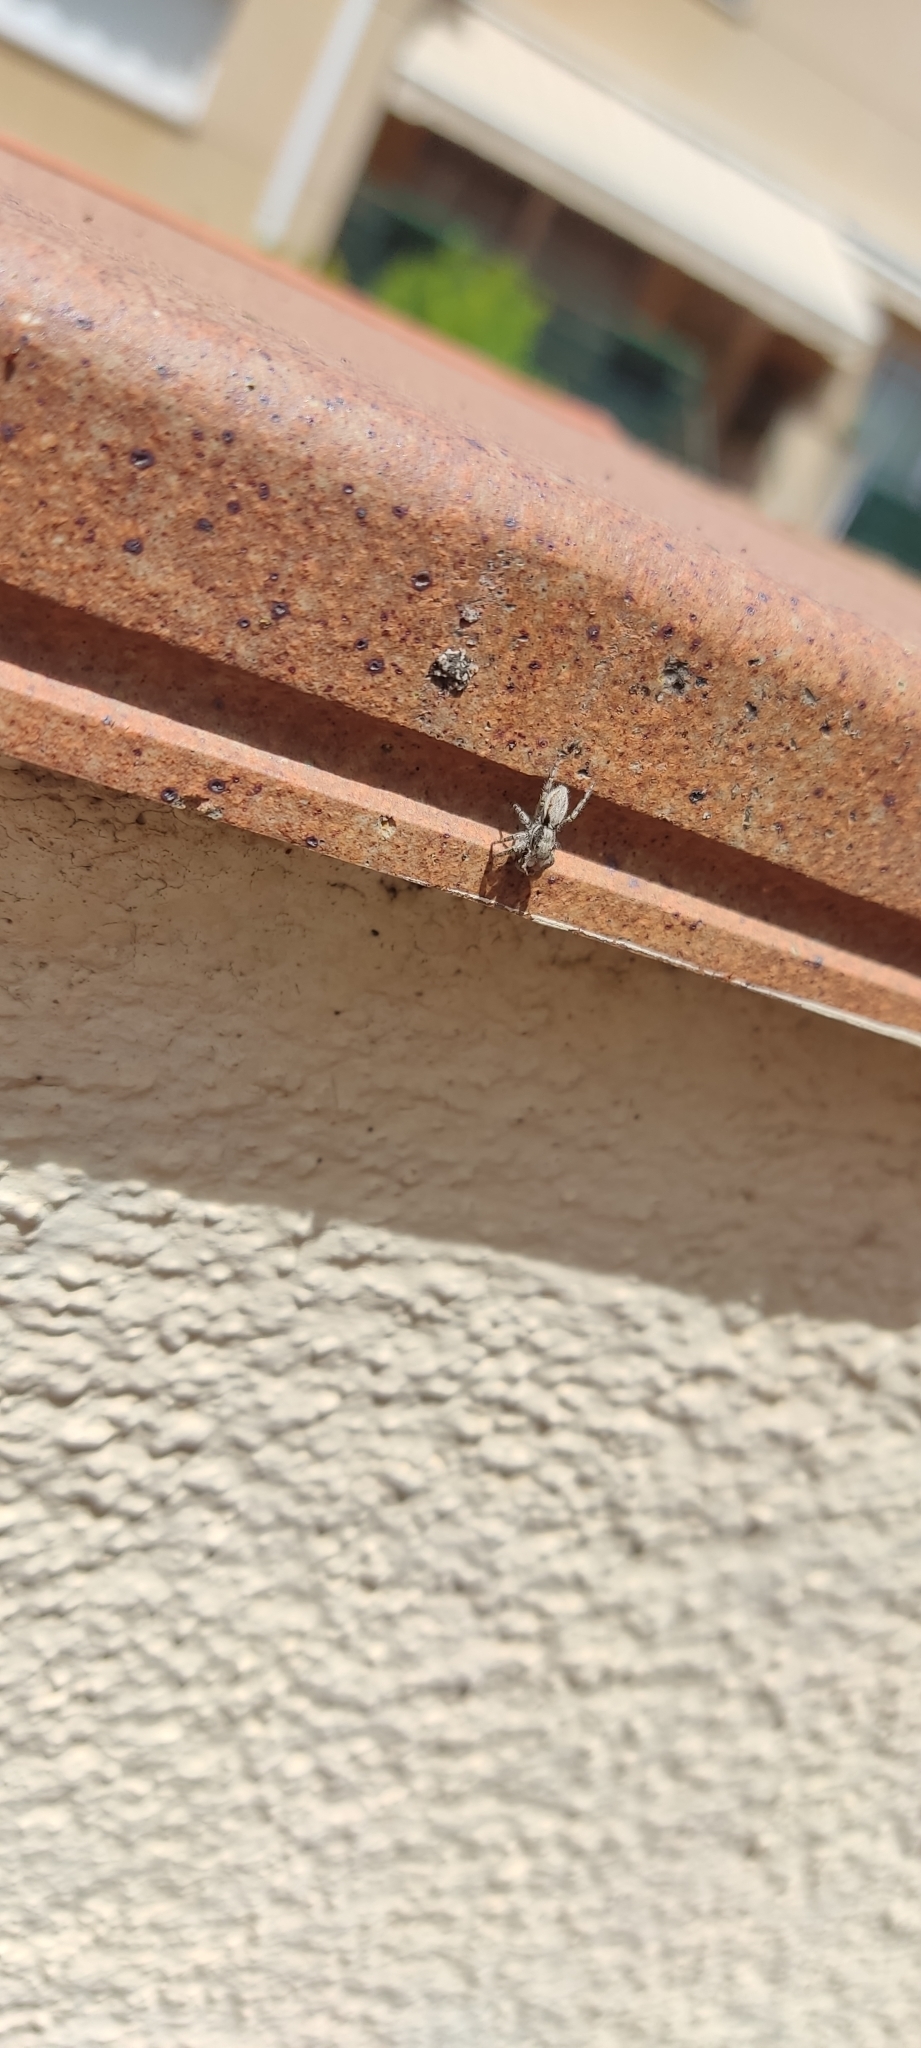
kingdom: Animalia
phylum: Arthropoda
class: Arachnida
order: Araneae
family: Salticidae
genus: Menemerus
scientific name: Menemerus taeniatus
